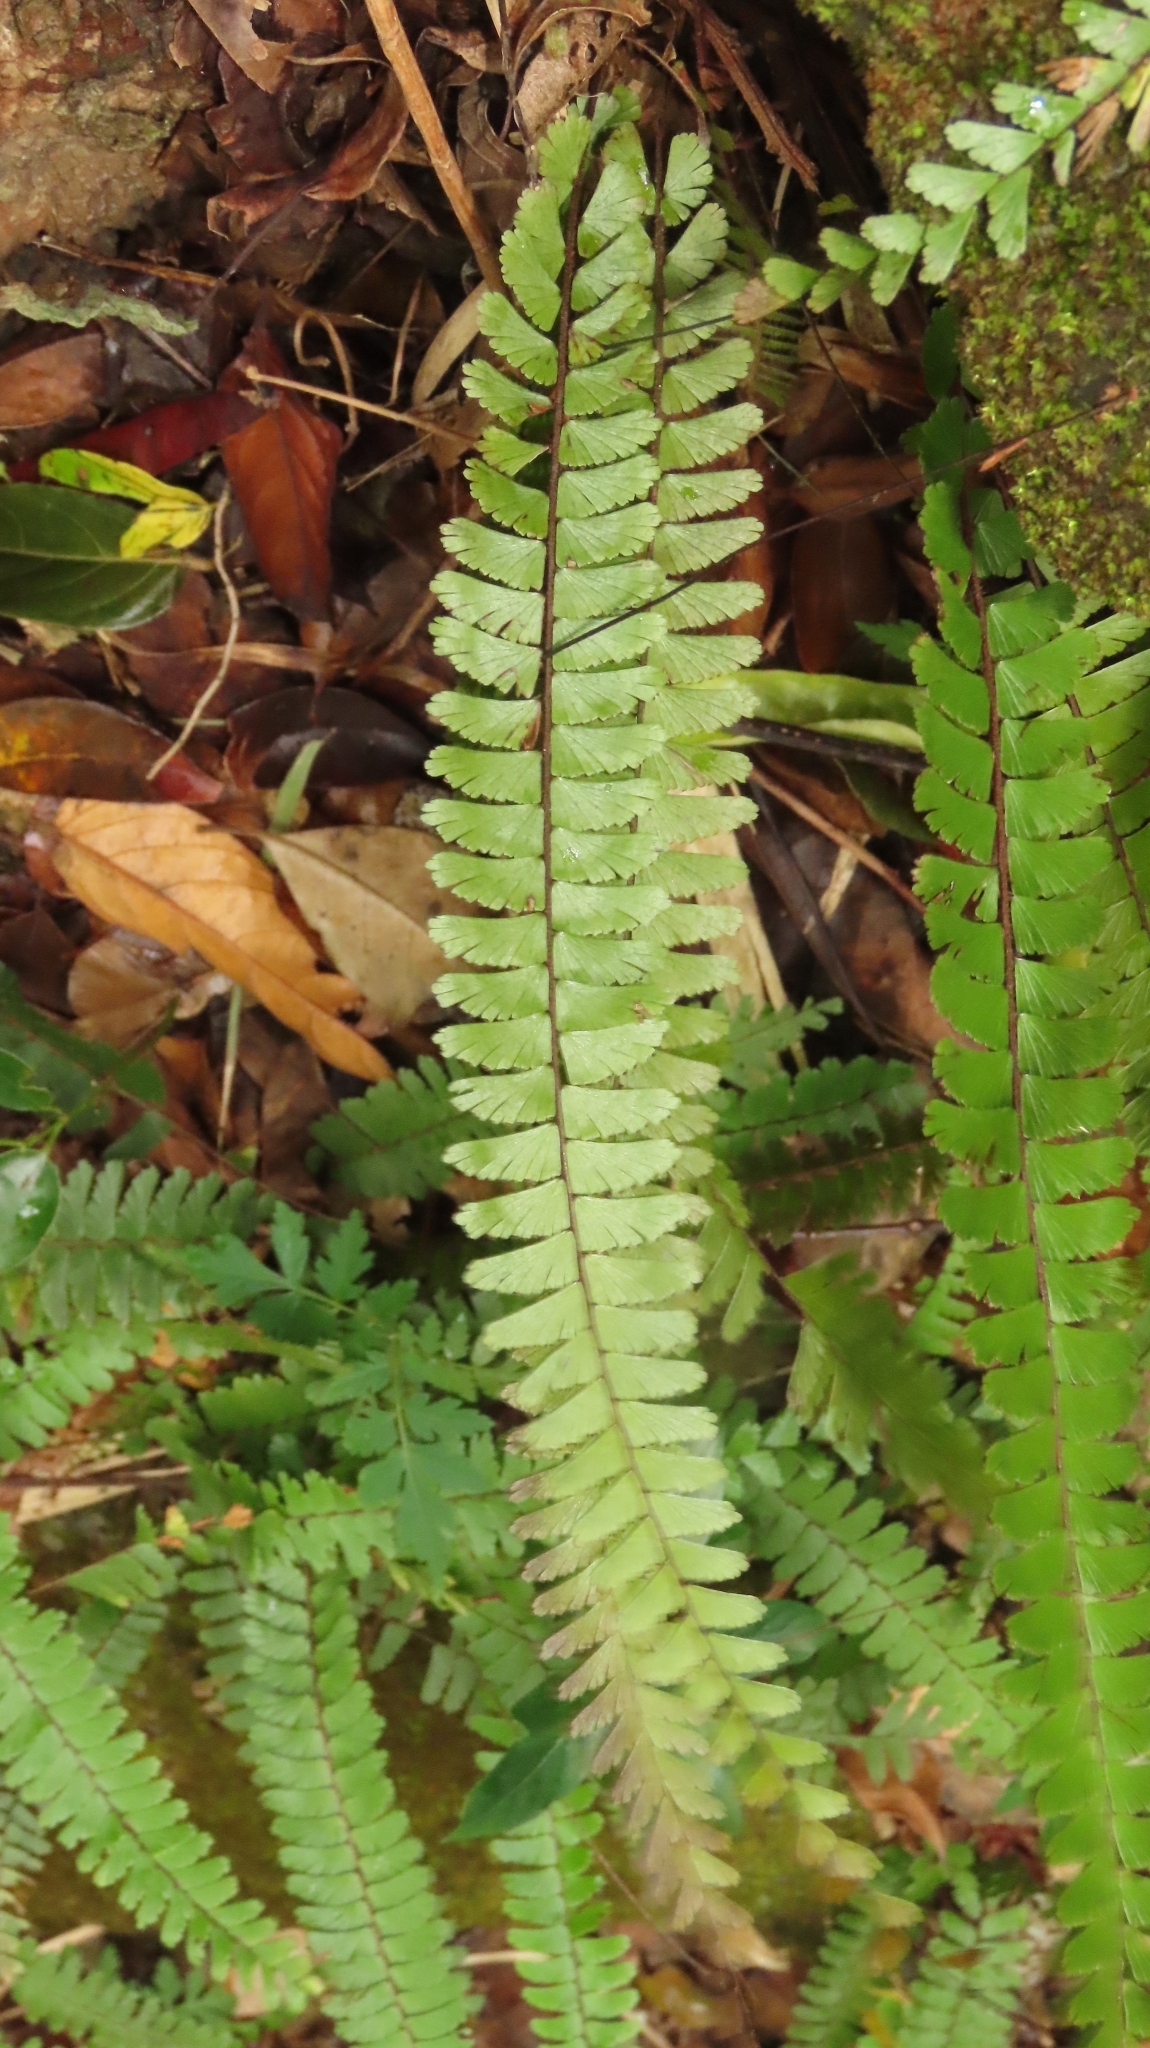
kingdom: Plantae
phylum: Tracheophyta
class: Polypodiopsida
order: Polypodiales
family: Pteridaceae
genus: Adiantum
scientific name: Adiantum caudatum
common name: Tailed maidenhair
